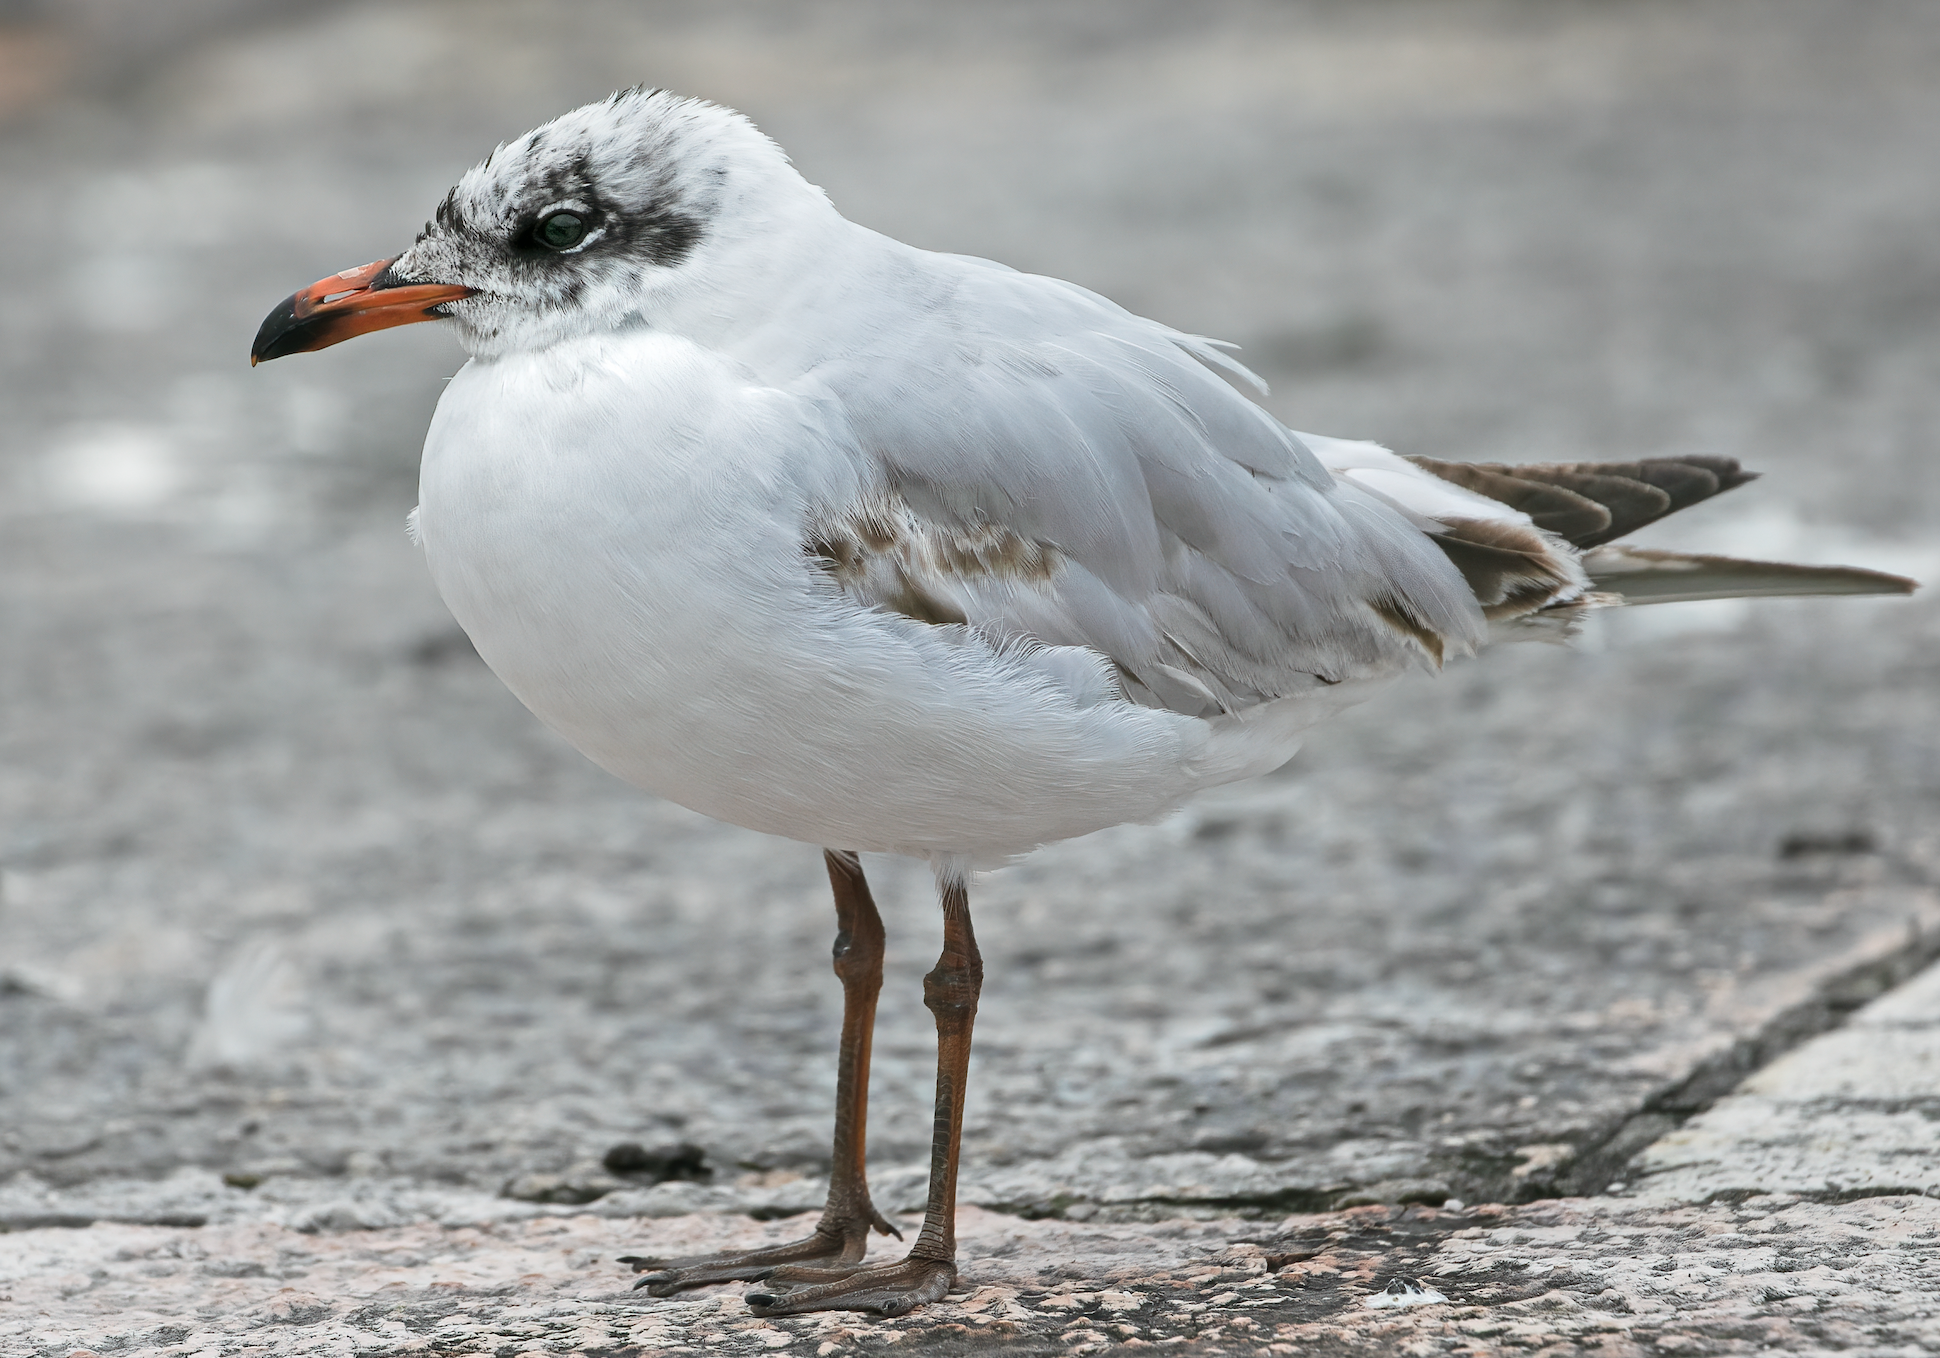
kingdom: Animalia
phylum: Chordata
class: Aves
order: Charadriiformes
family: Laridae
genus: Ichthyaetus
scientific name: Ichthyaetus melanocephalus
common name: Mediterranean gull
